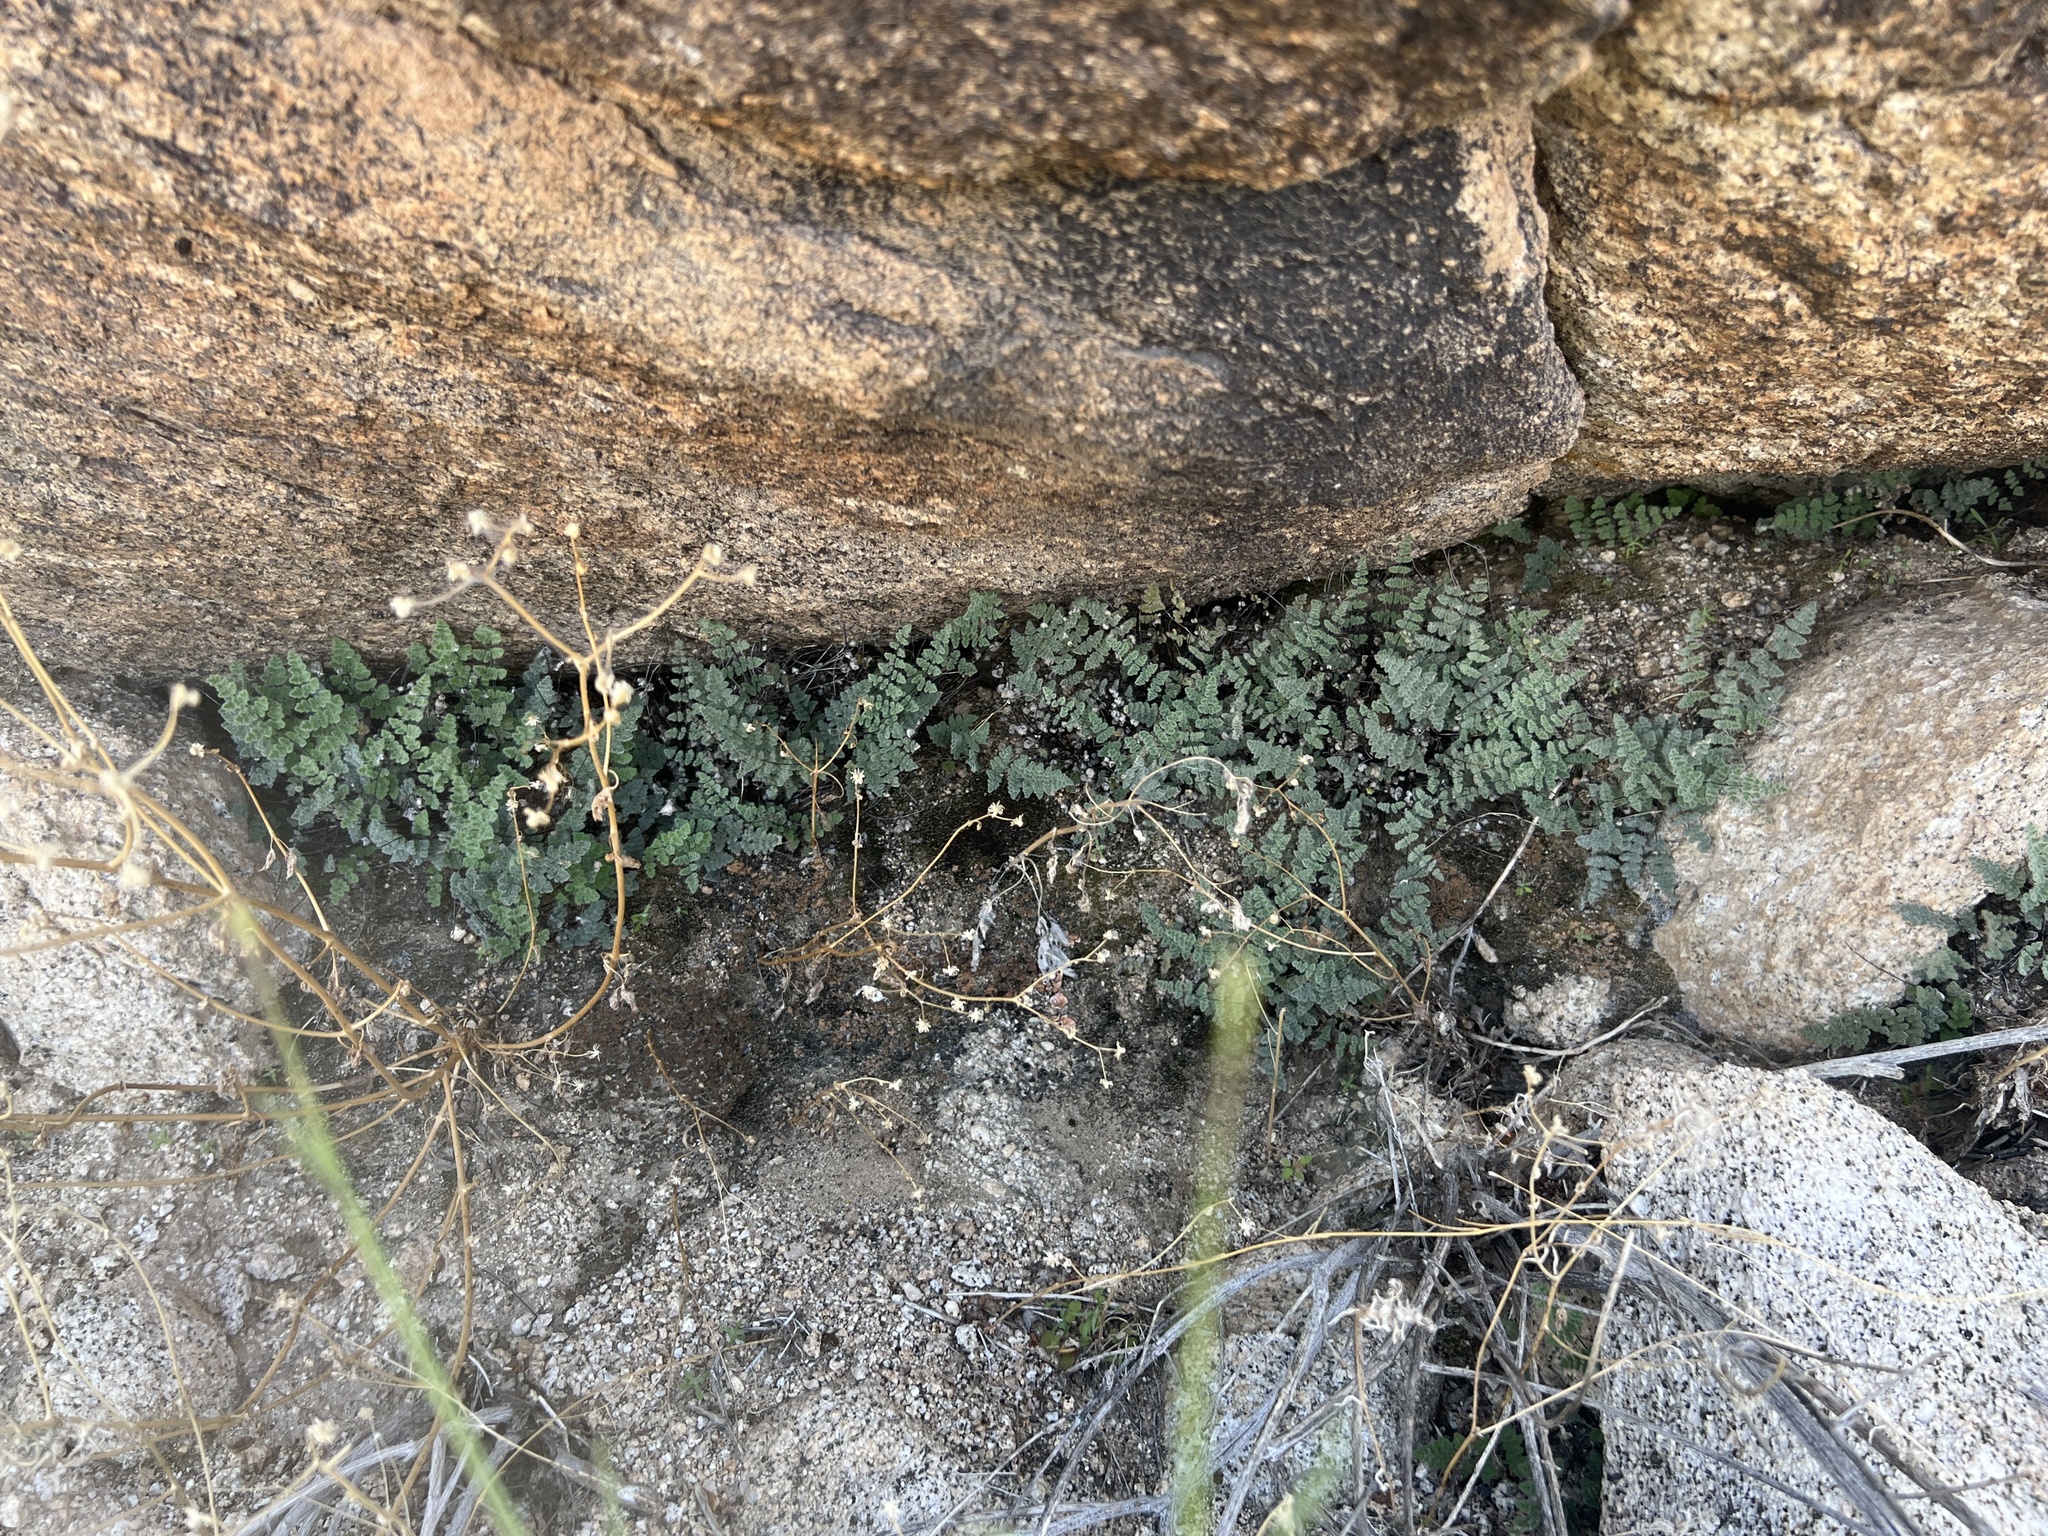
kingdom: Plantae
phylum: Tracheophyta
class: Polypodiopsida
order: Polypodiales
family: Pteridaceae
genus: Myriopteris
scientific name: Myriopteris parryi
